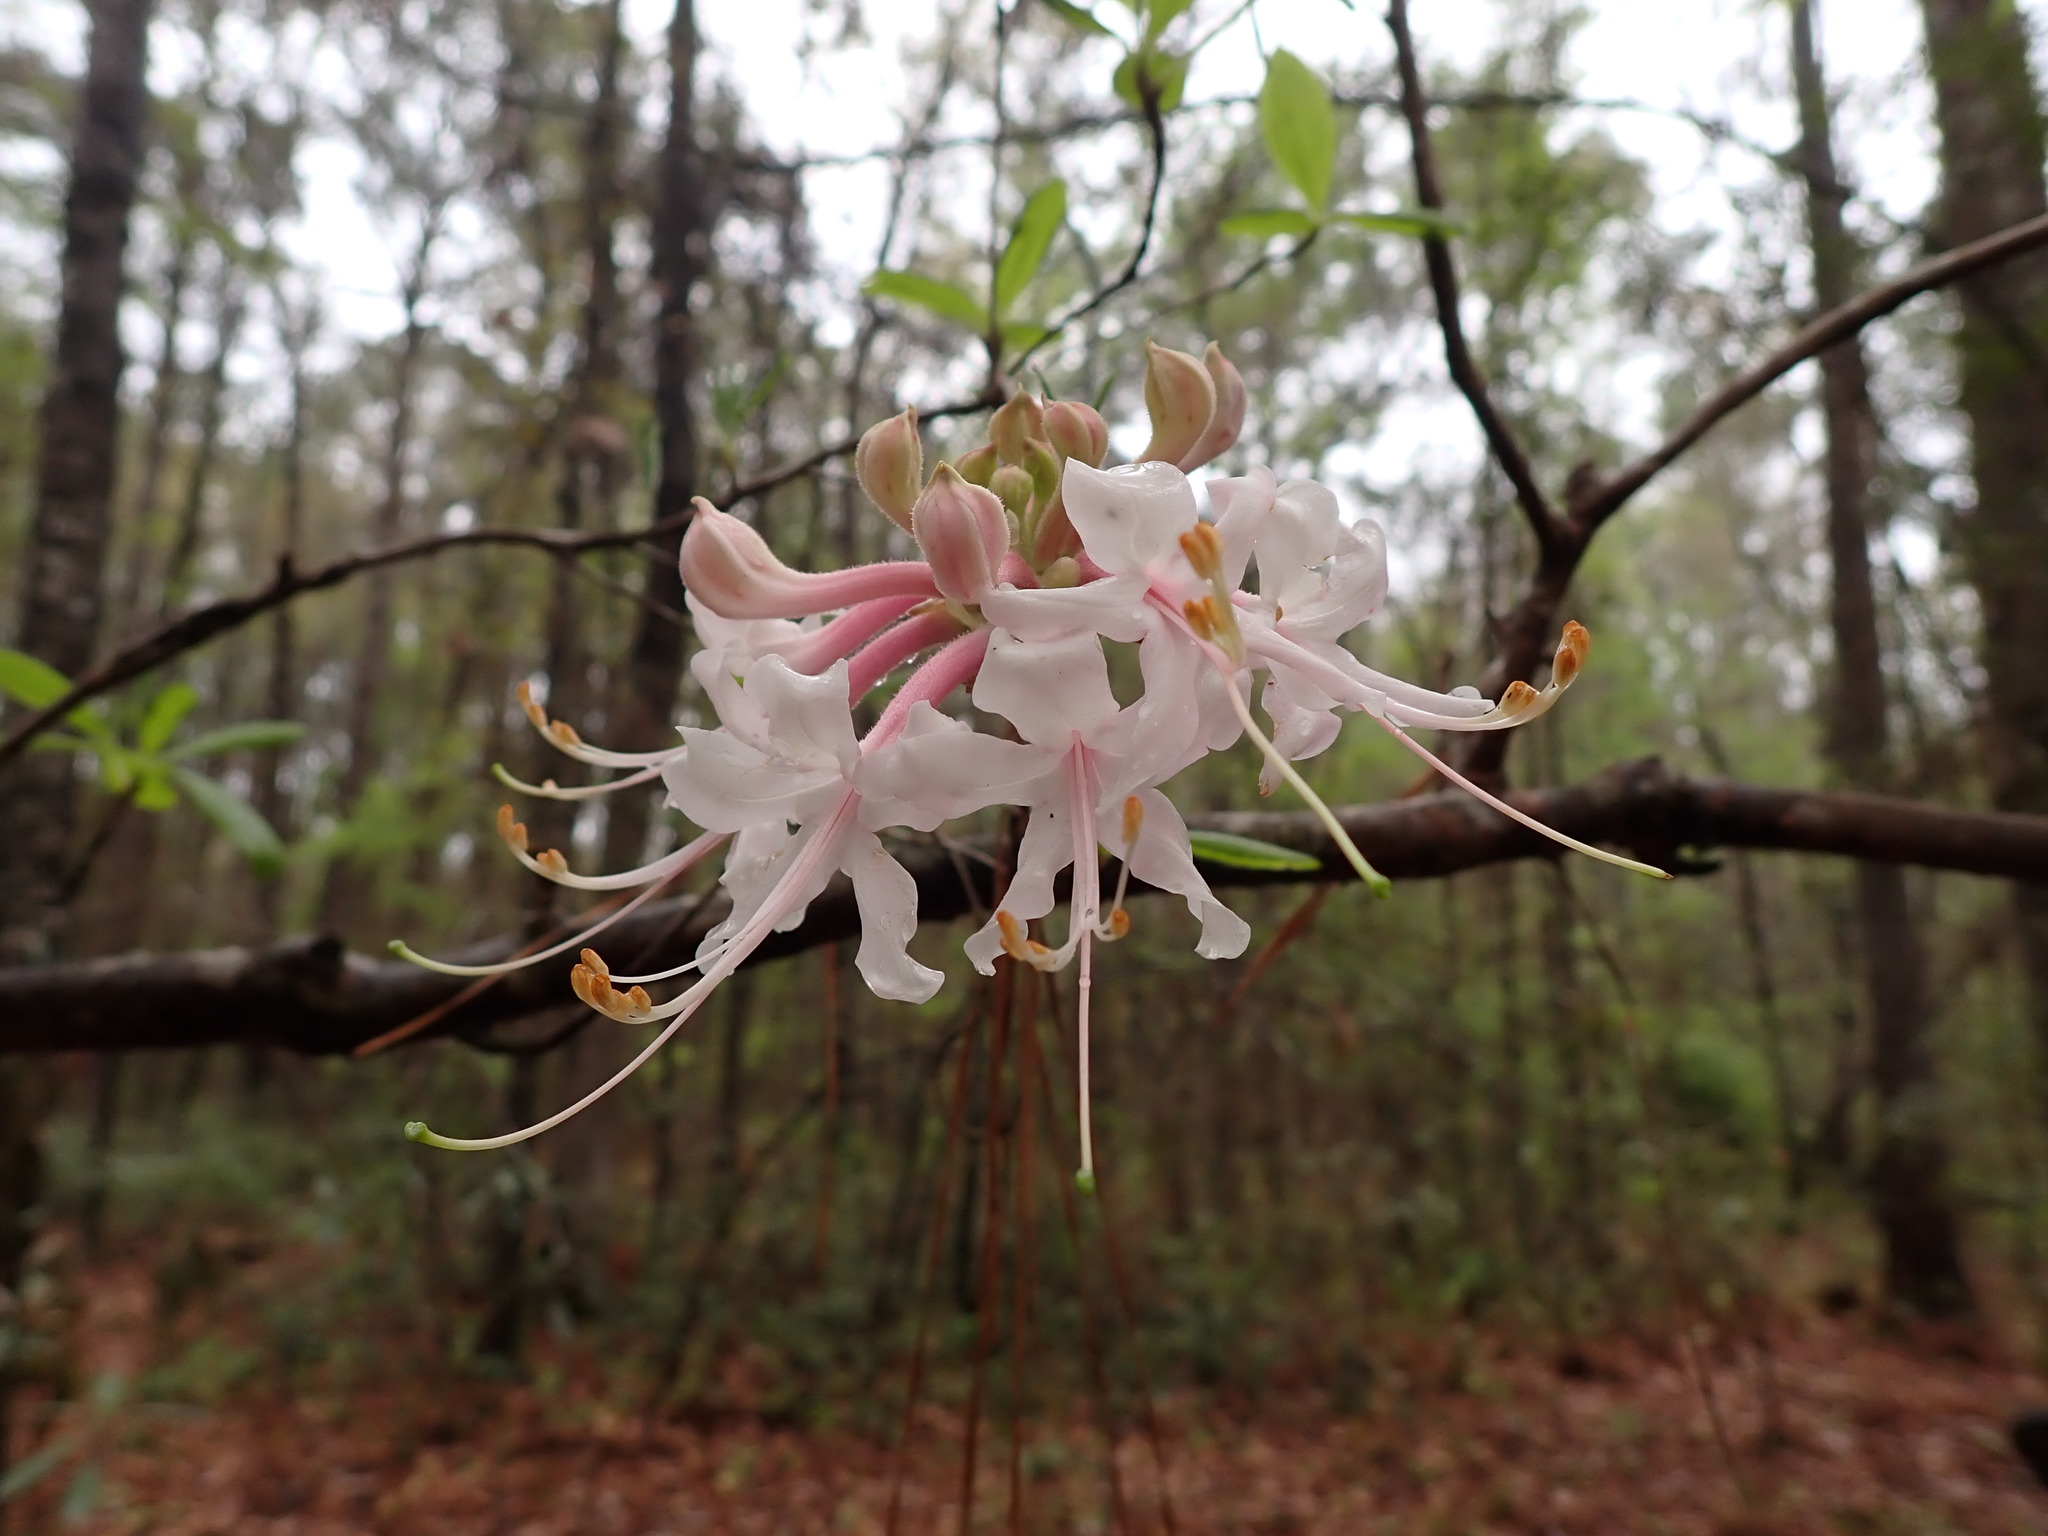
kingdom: Plantae
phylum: Tracheophyta
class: Magnoliopsida
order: Ericales
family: Ericaceae
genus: Rhododendron
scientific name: Rhododendron canescens
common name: Mountain azalea
